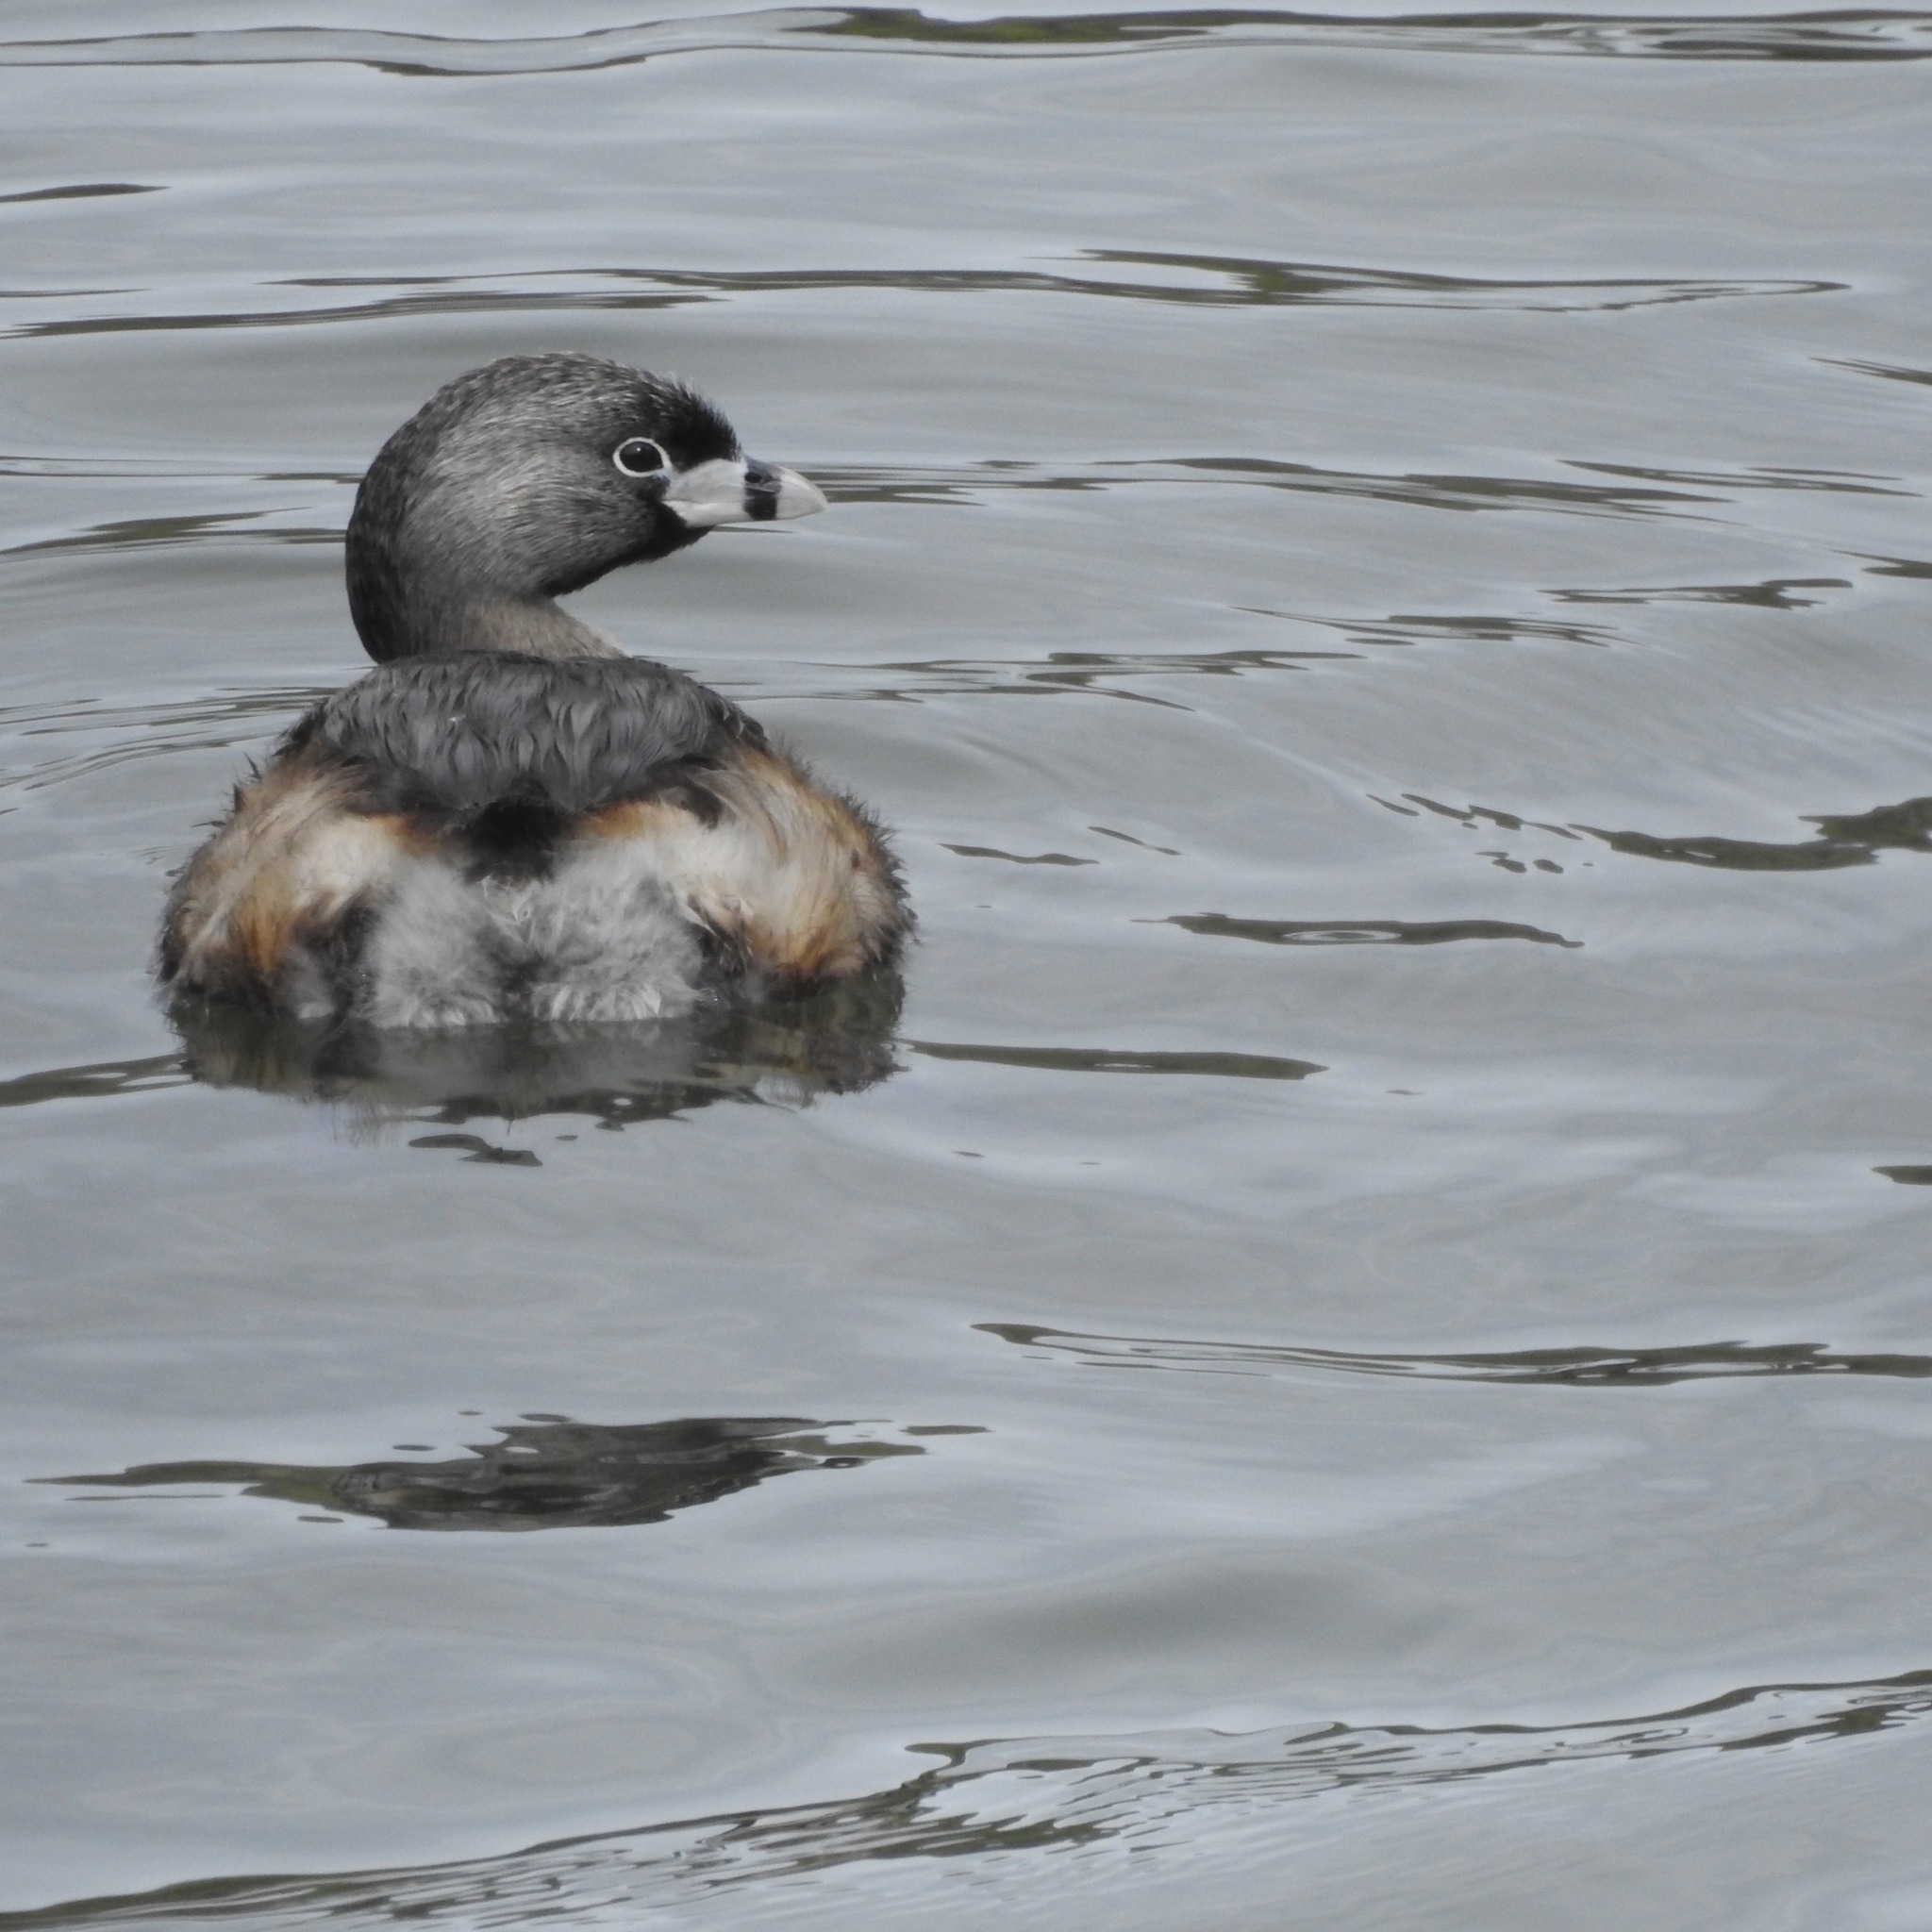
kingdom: Animalia
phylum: Chordata
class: Aves
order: Podicipediformes
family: Podicipedidae
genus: Podilymbus
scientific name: Podilymbus podiceps
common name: Pied-billed grebe
